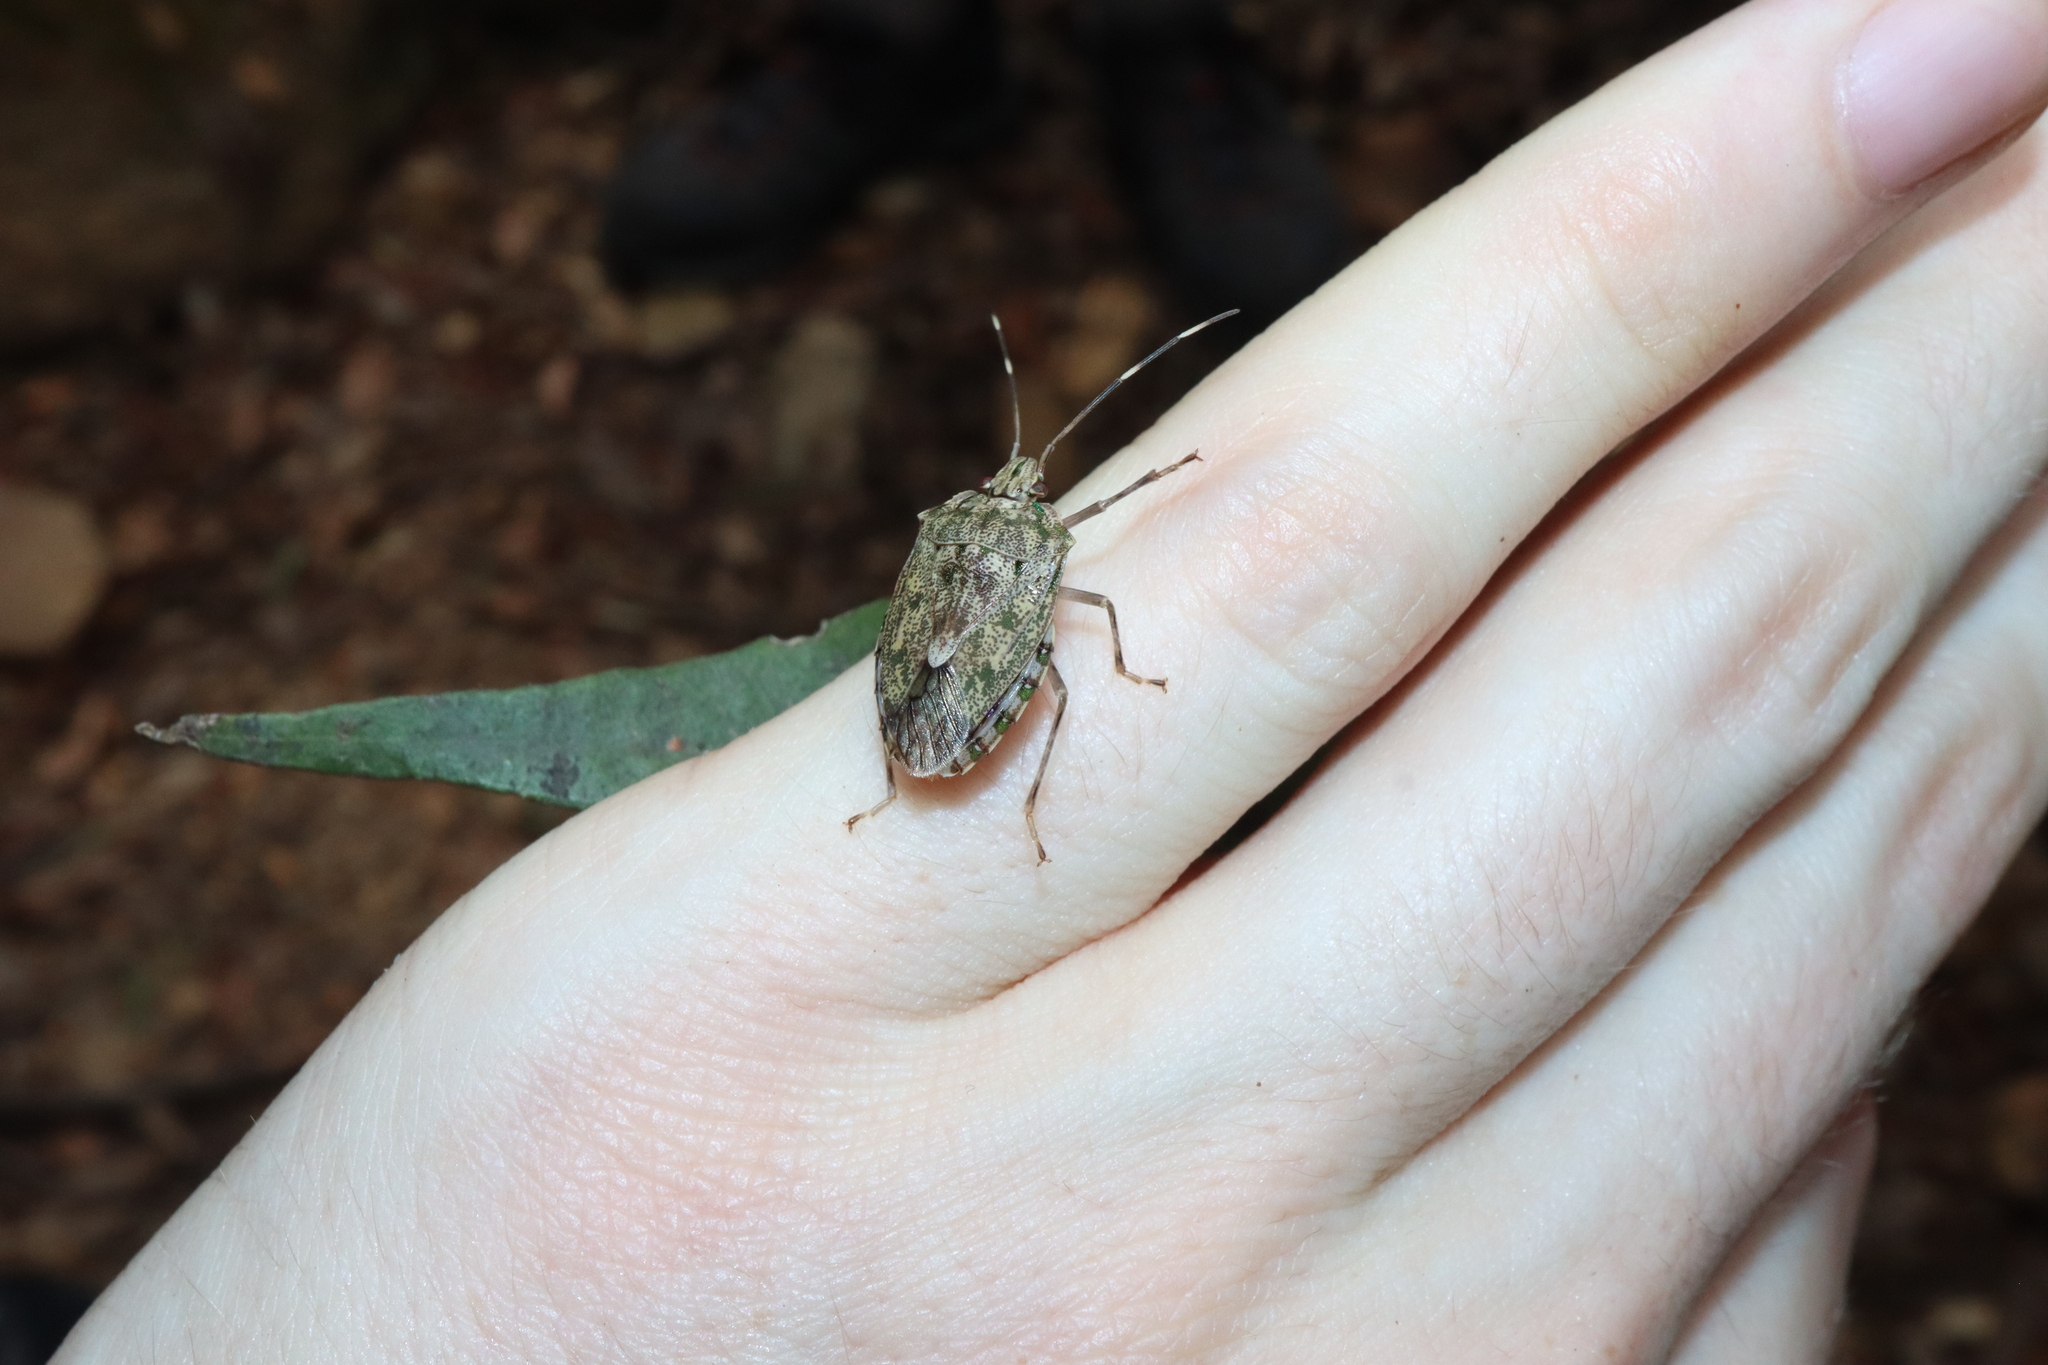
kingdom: Animalia
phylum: Arthropoda
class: Insecta
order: Hemiptera
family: Pentatomidae
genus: Bathrus
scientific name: Bathrus
